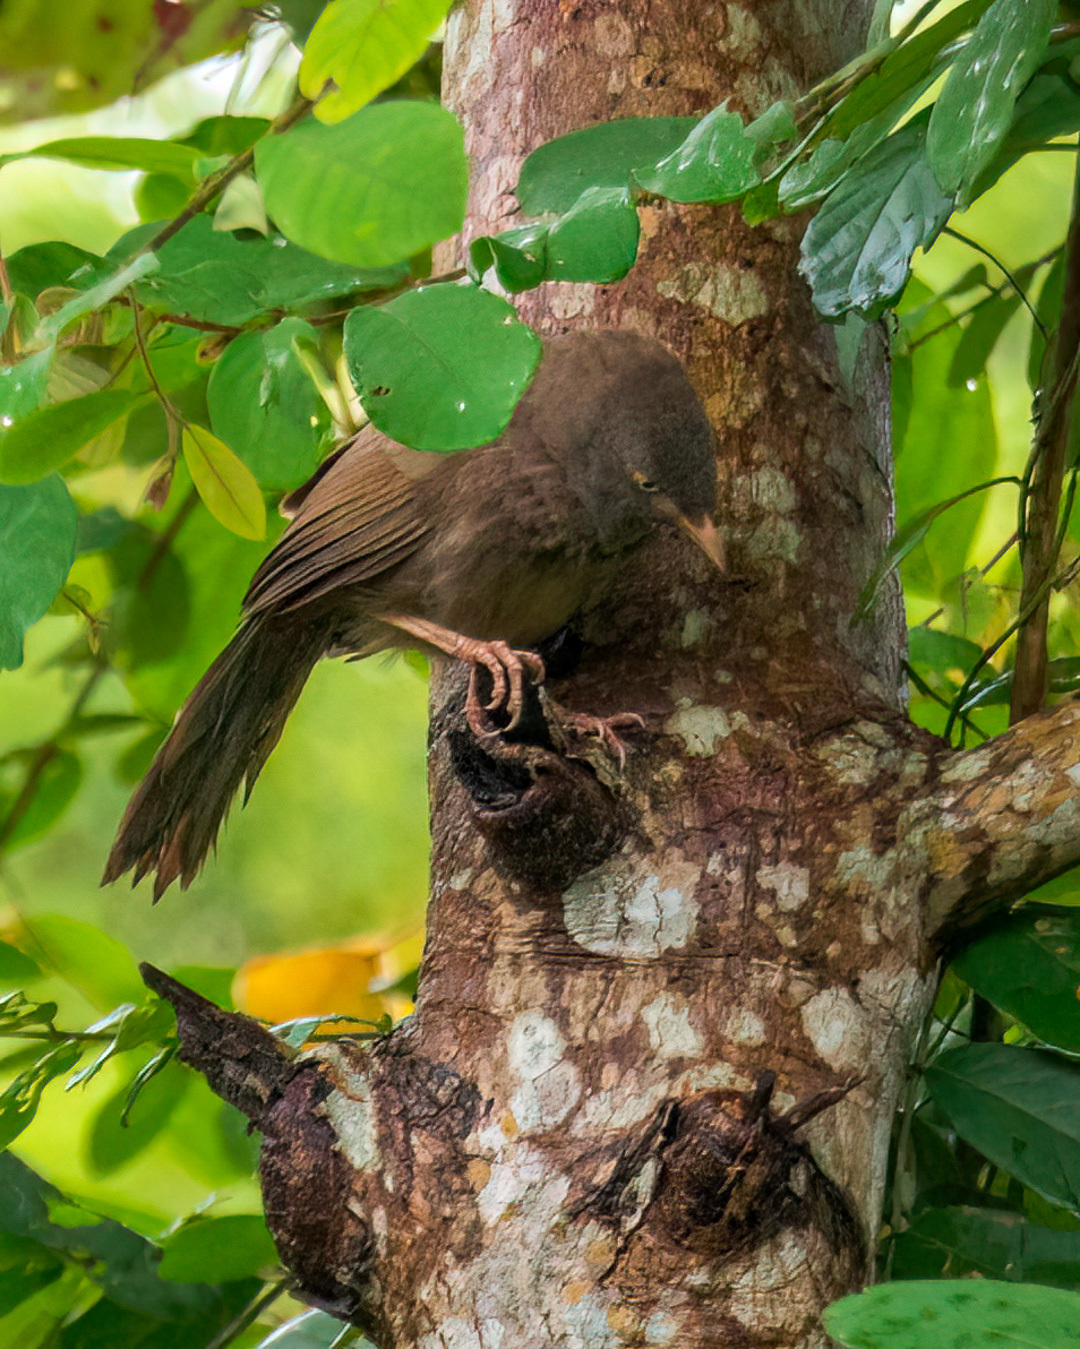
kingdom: Animalia
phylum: Chordata
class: Aves
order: Passeriformes
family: Leiothrichidae
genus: Turdoides
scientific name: Turdoides striata
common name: Jungle babbler
